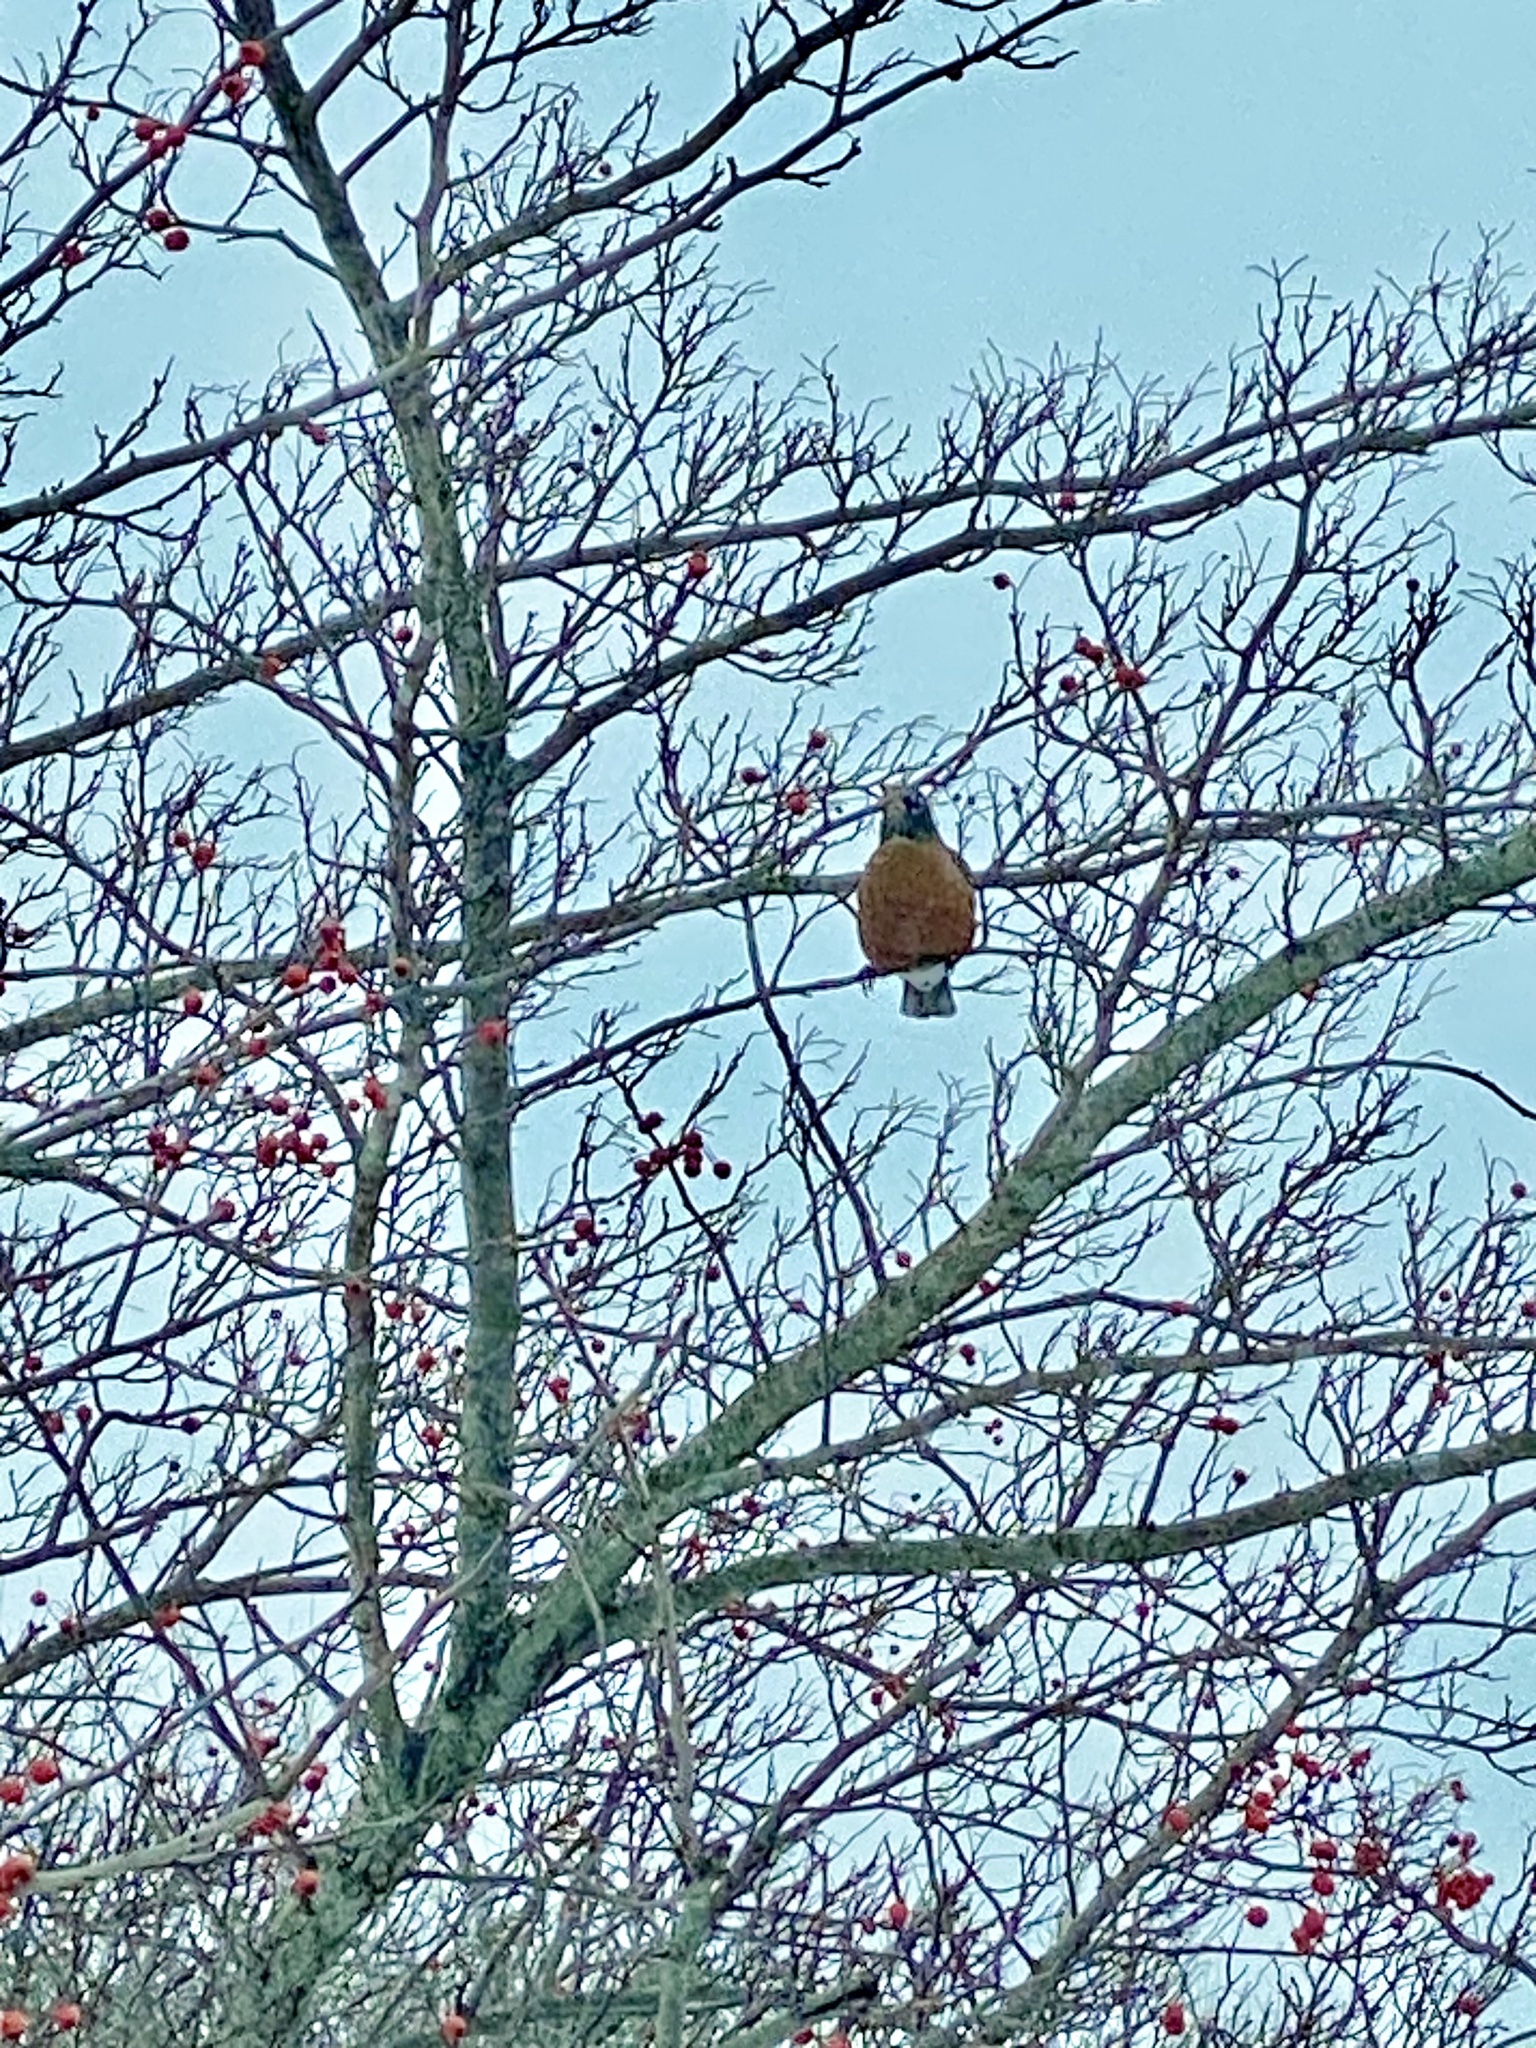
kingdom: Animalia
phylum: Chordata
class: Aves
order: Passeriformes
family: Turdidae
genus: Turdus
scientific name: Turdus migratorius
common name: American robin
